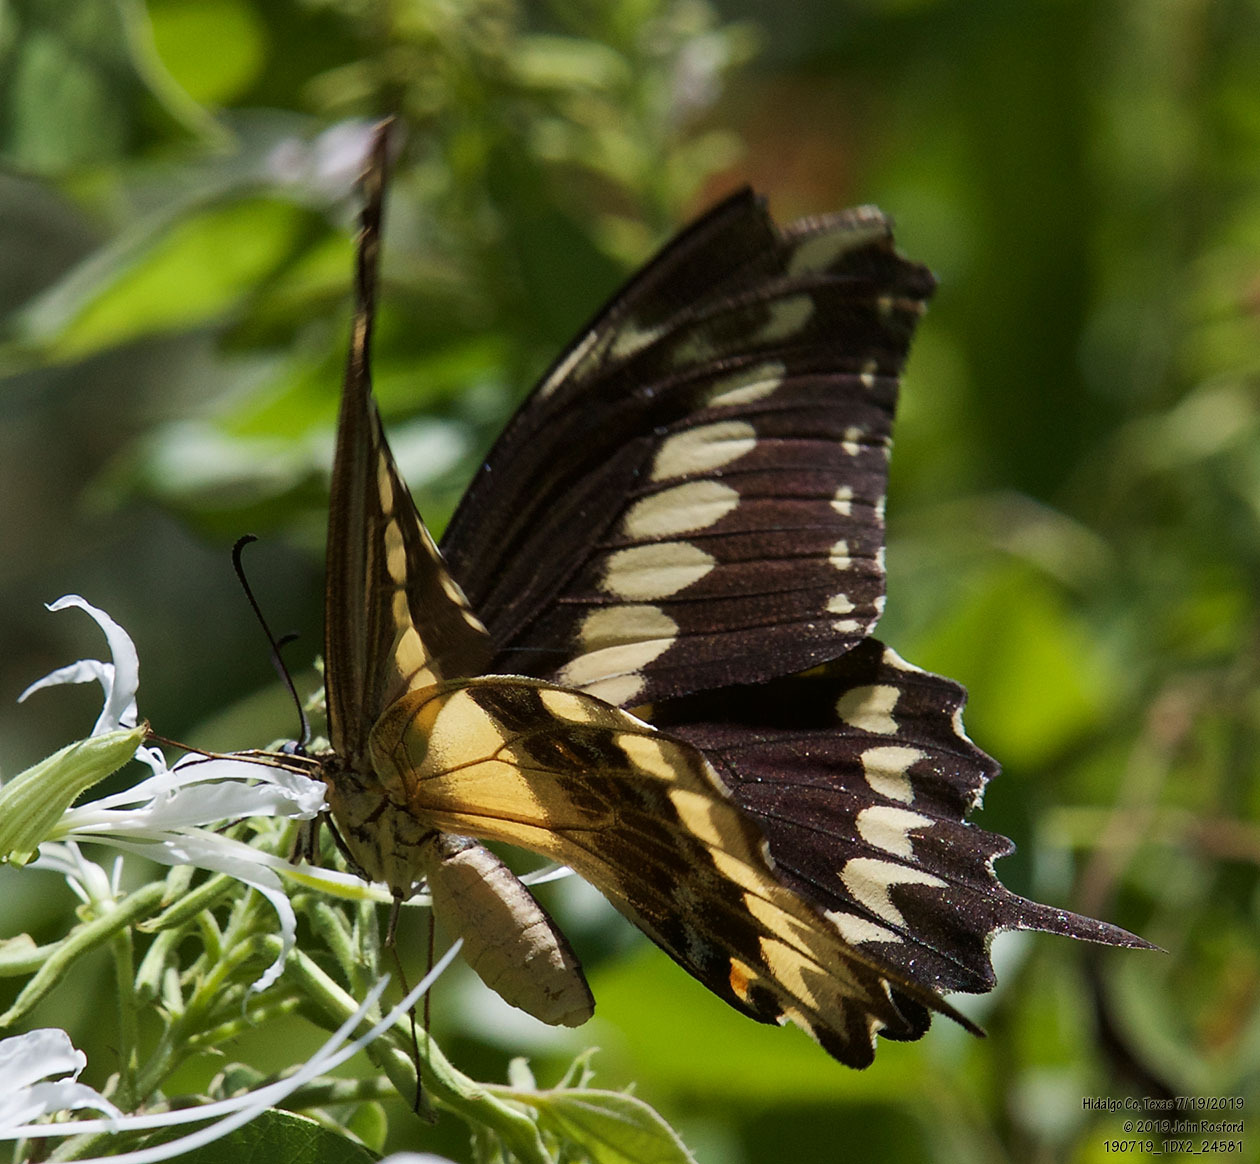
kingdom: Animalia
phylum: Arthropoda
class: Insecta
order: Lepidoptera
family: Papilionidae
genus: Papilio
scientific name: Papilio ornythion
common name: Ornythion swallowtail
